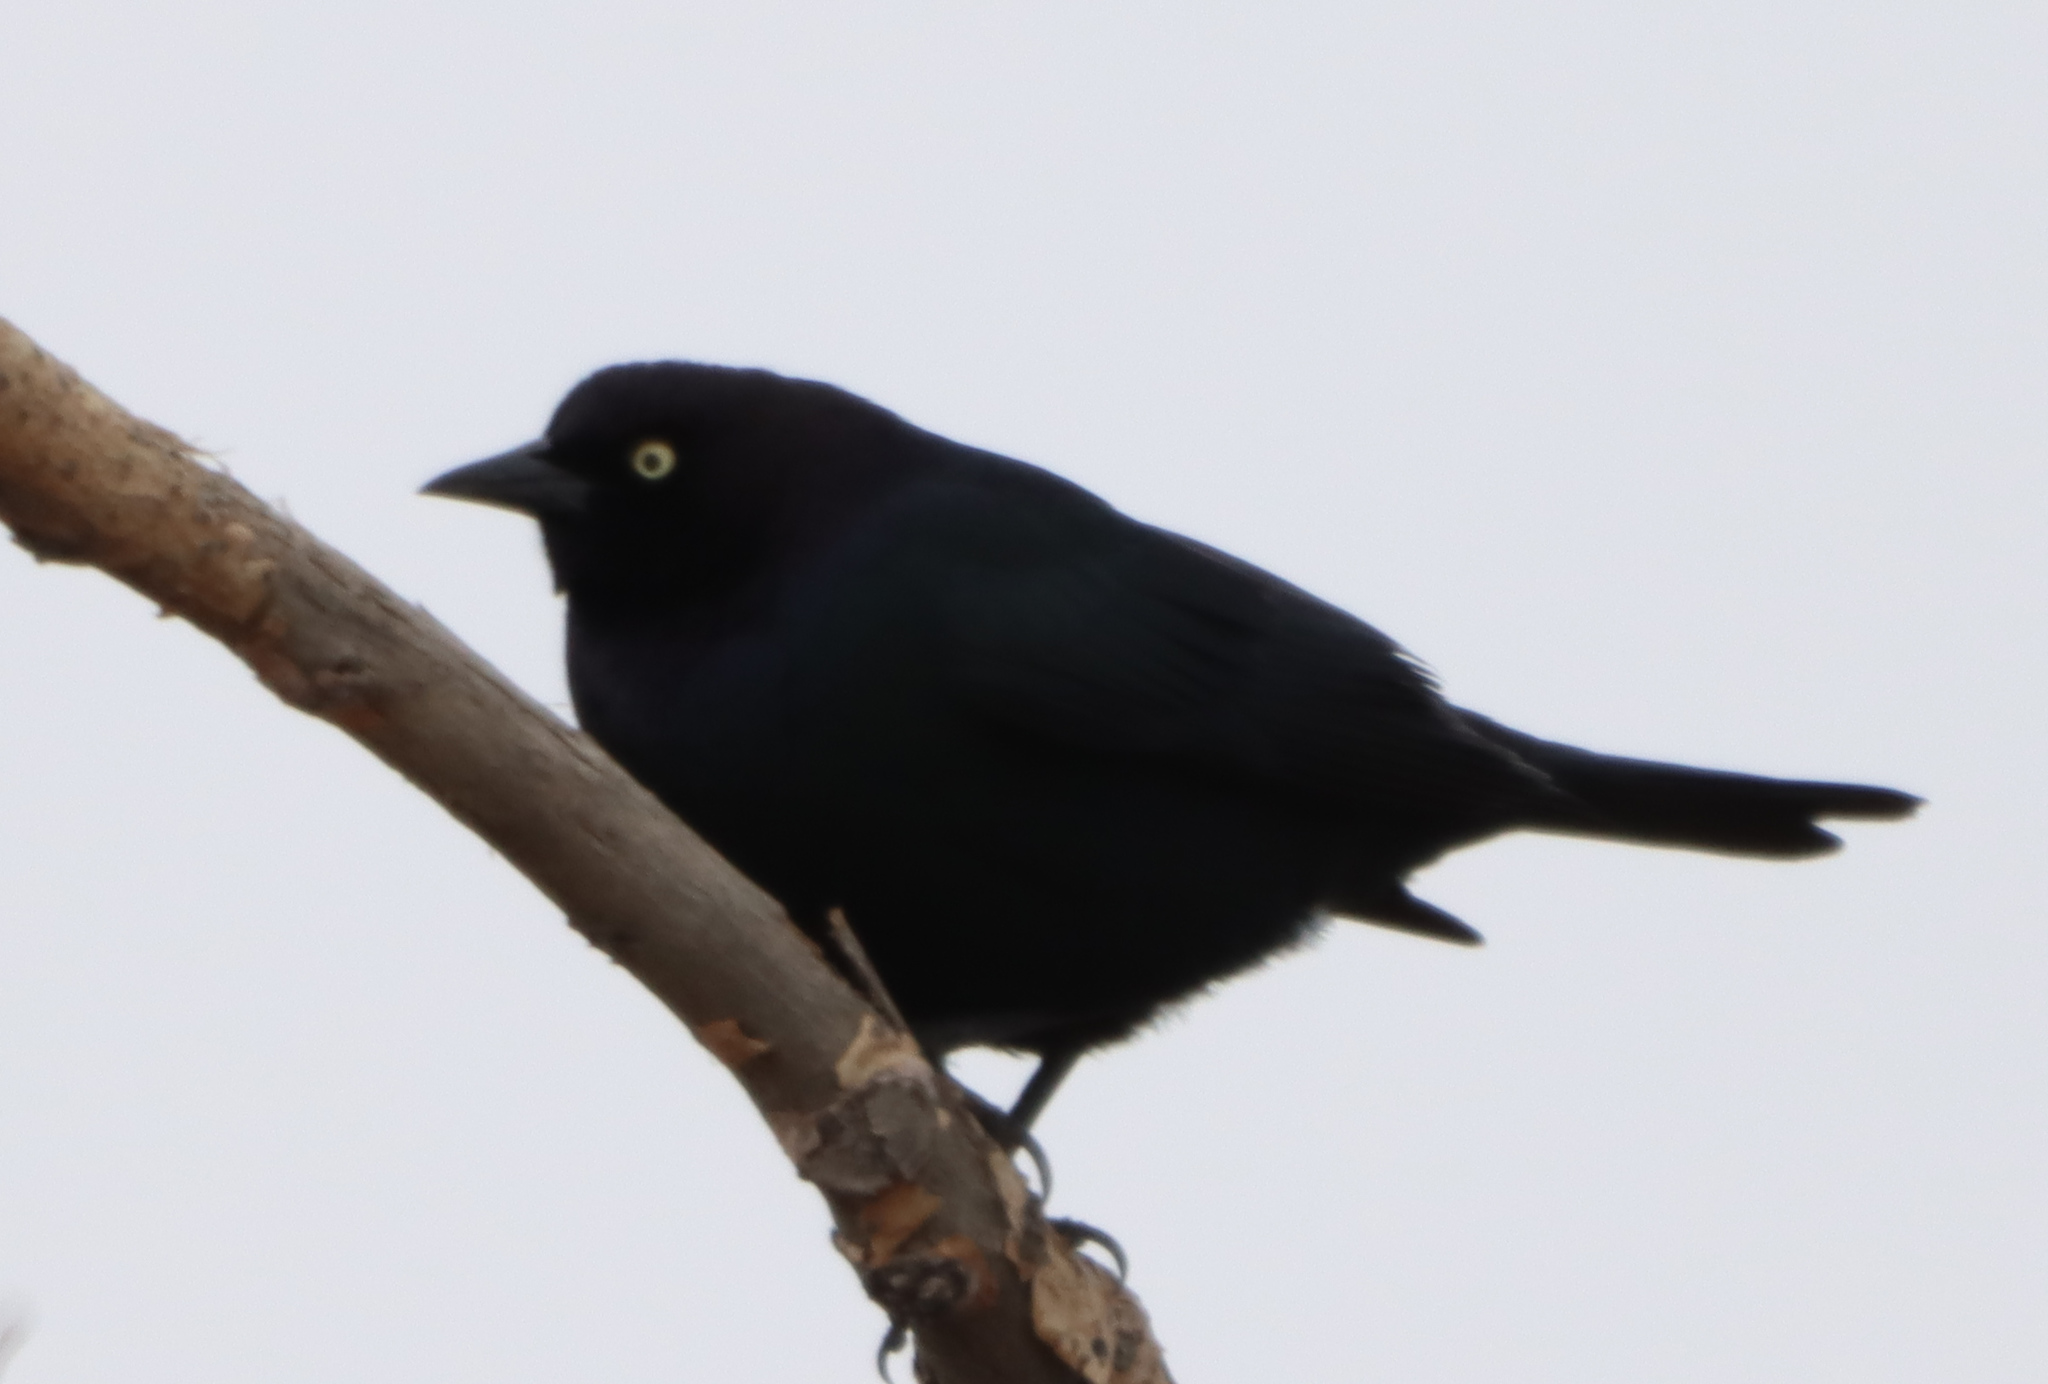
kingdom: Animalia
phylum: Chordata
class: Aves
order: Passeriformes
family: Icteridae
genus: Euphagus
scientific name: Euphagus cyanocephalus
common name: Brewer's blackbird
